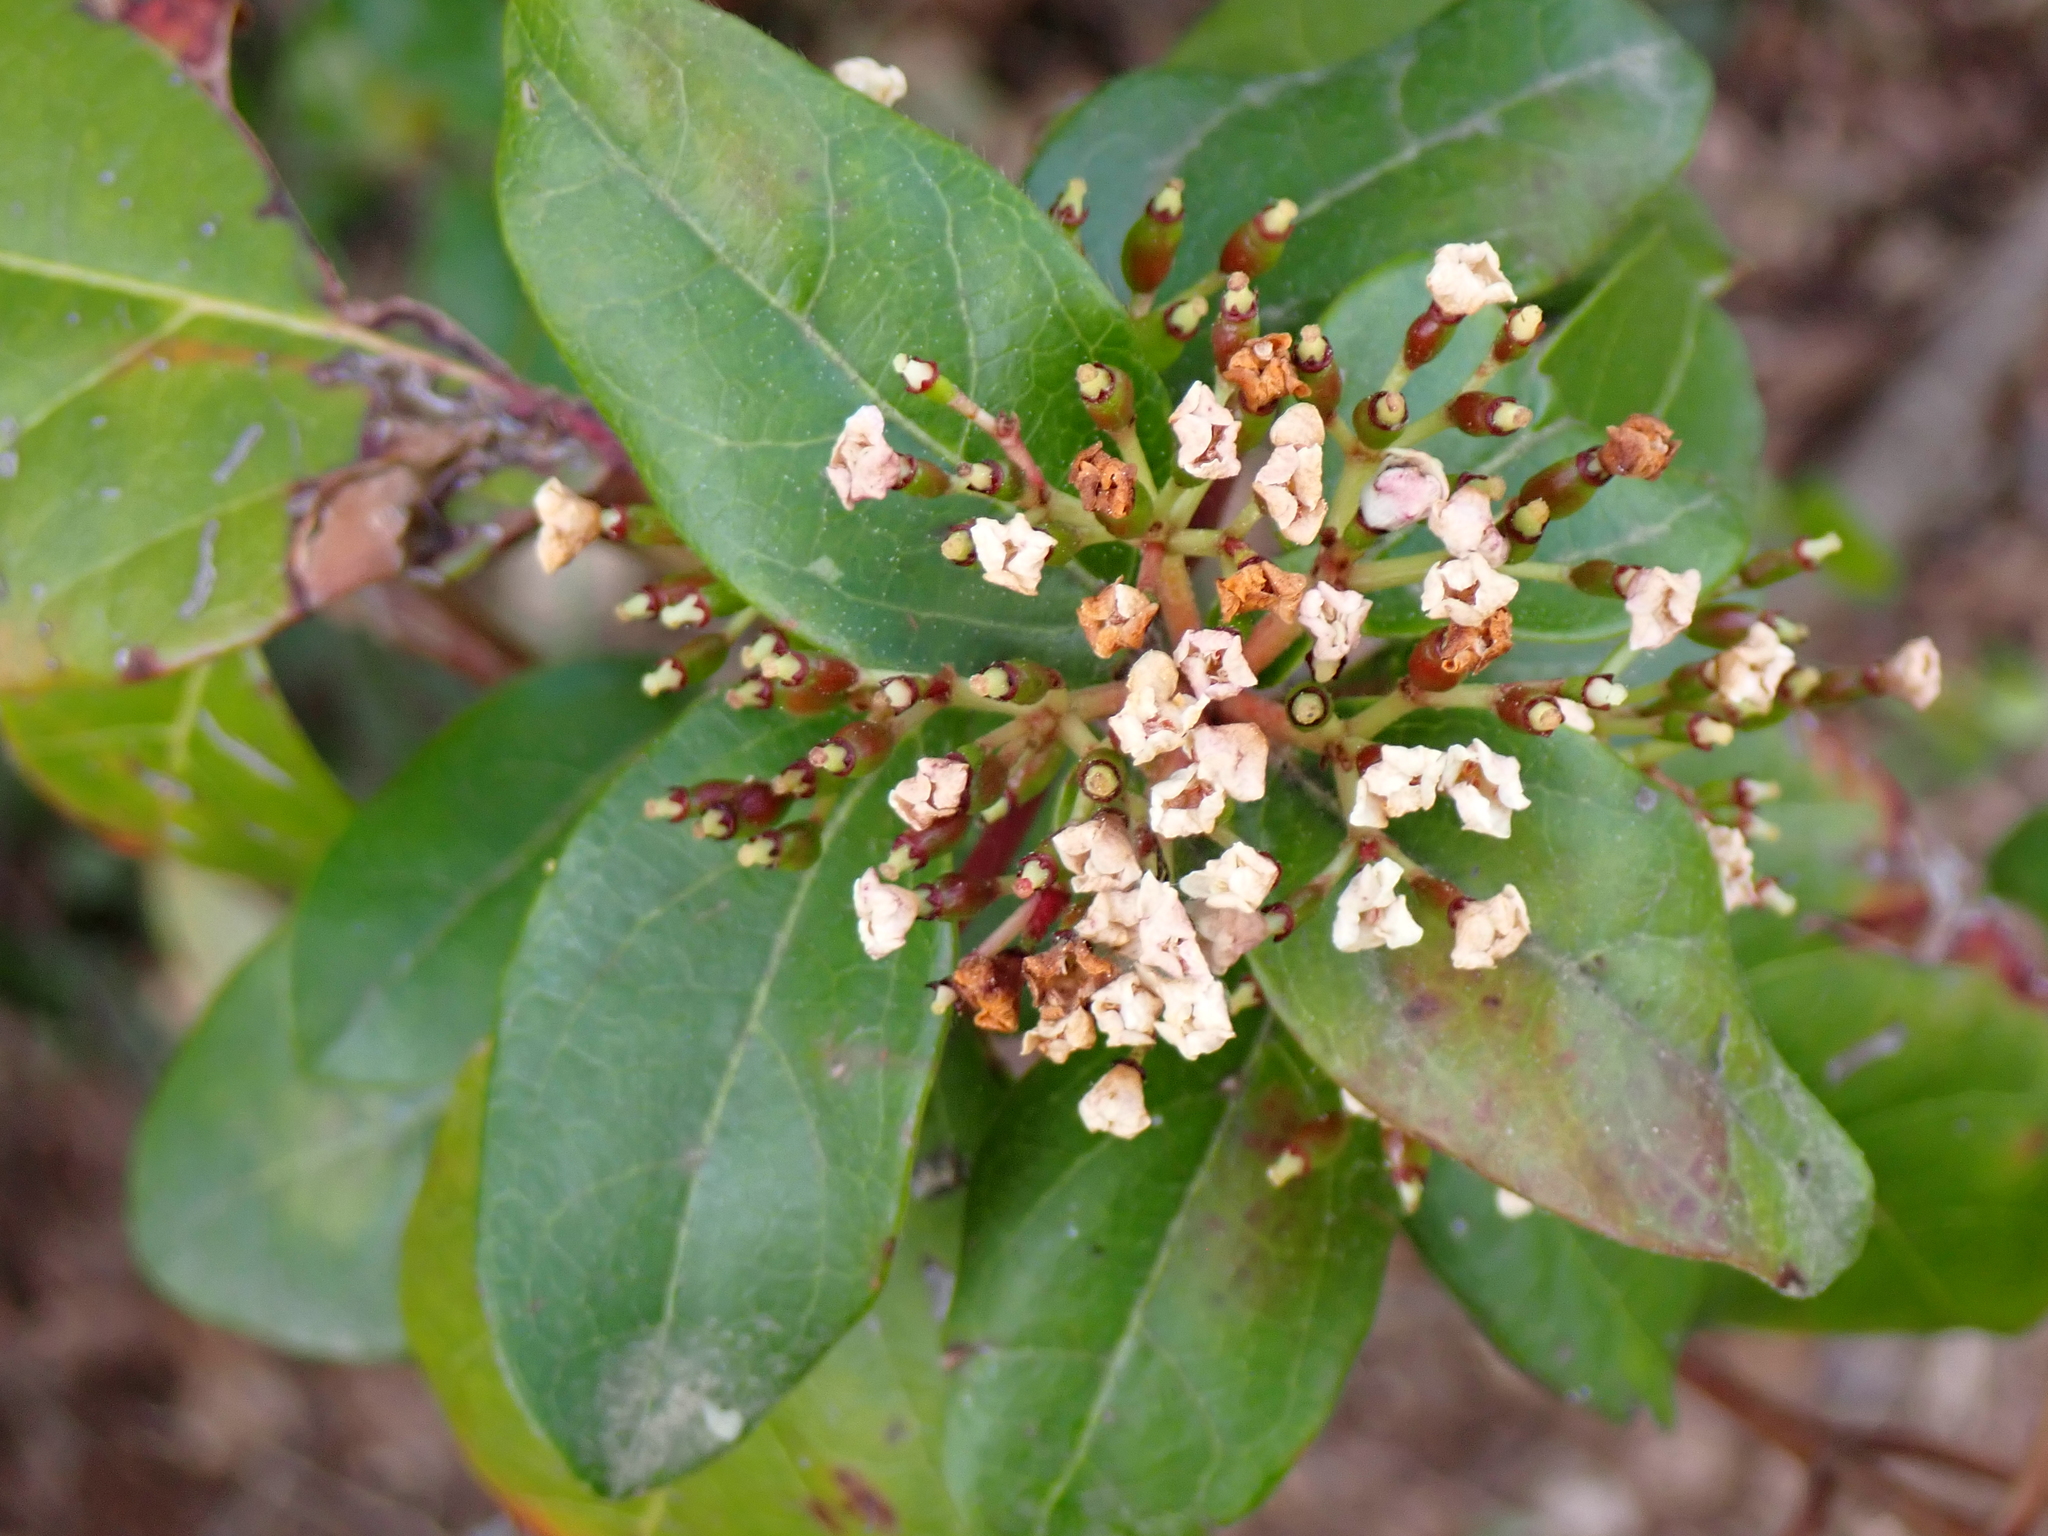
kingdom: Plantae
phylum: Tracheophyta
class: Magnoliopsida
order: Dipsacales
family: Viburnaceae
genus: Viburnum
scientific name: Viburnum tinus
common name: Laurustinus
